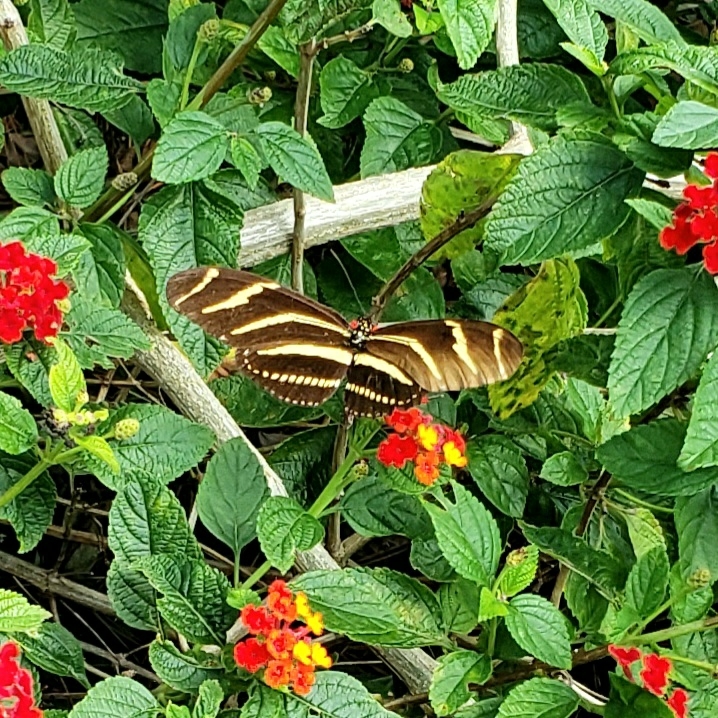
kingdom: Animalia
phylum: Arthropoda
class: Insecta
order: Lepidoptera
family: Nymphalidae
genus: Heliconius
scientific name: Heliconius charithonia
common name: Zebra long wing
